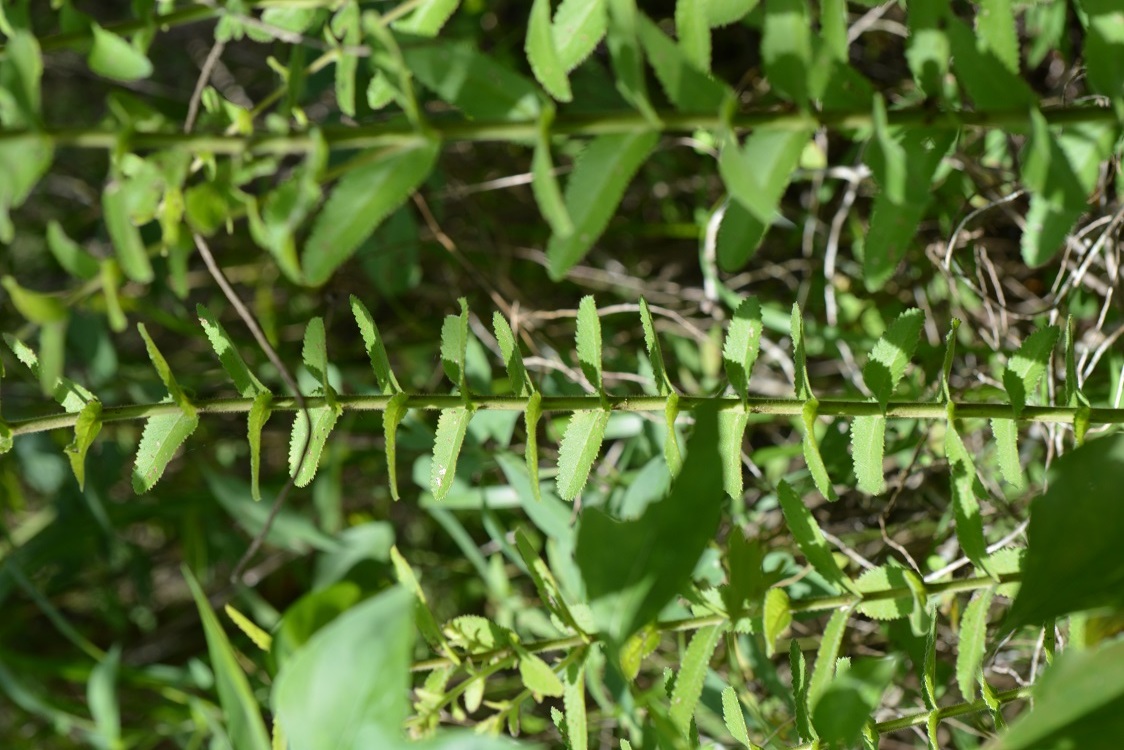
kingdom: Plantae
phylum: Tracheophyta
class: Magnoliopsida
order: Lamiales
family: Orobanchaceae
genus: Lamourouxia
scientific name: Lamourouxia viscosa
